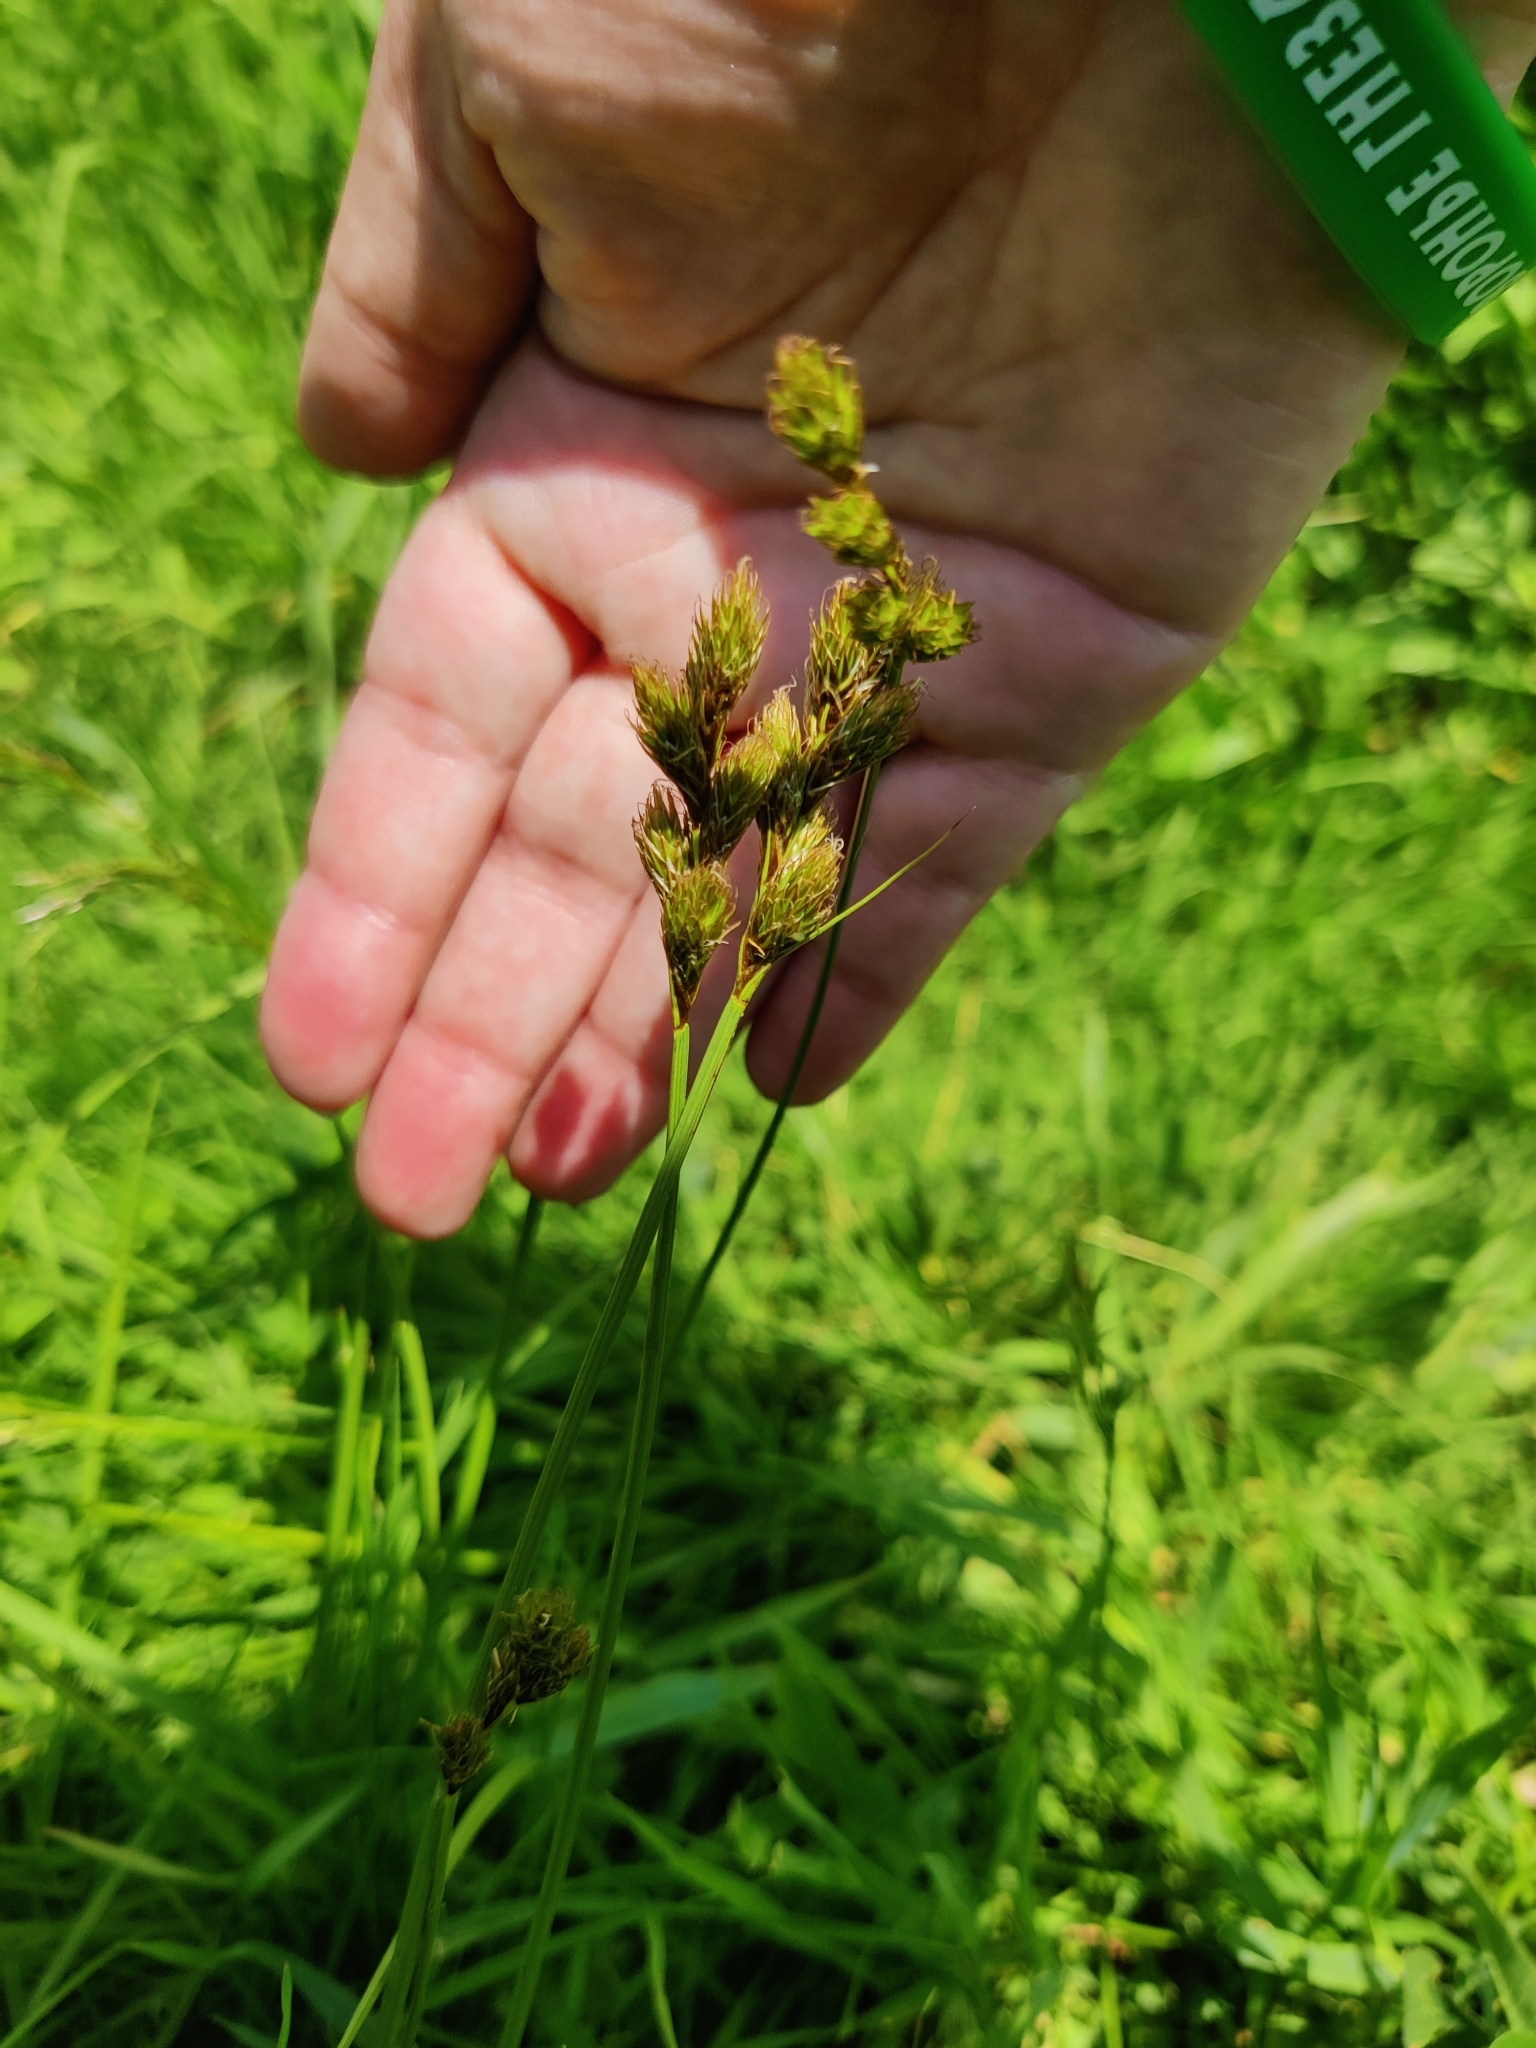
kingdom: Plantae
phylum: Tracheophyta
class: Liliopsida
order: Poales
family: Cyperaceae
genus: Carex
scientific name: Carex leporina
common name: Oval sedge
